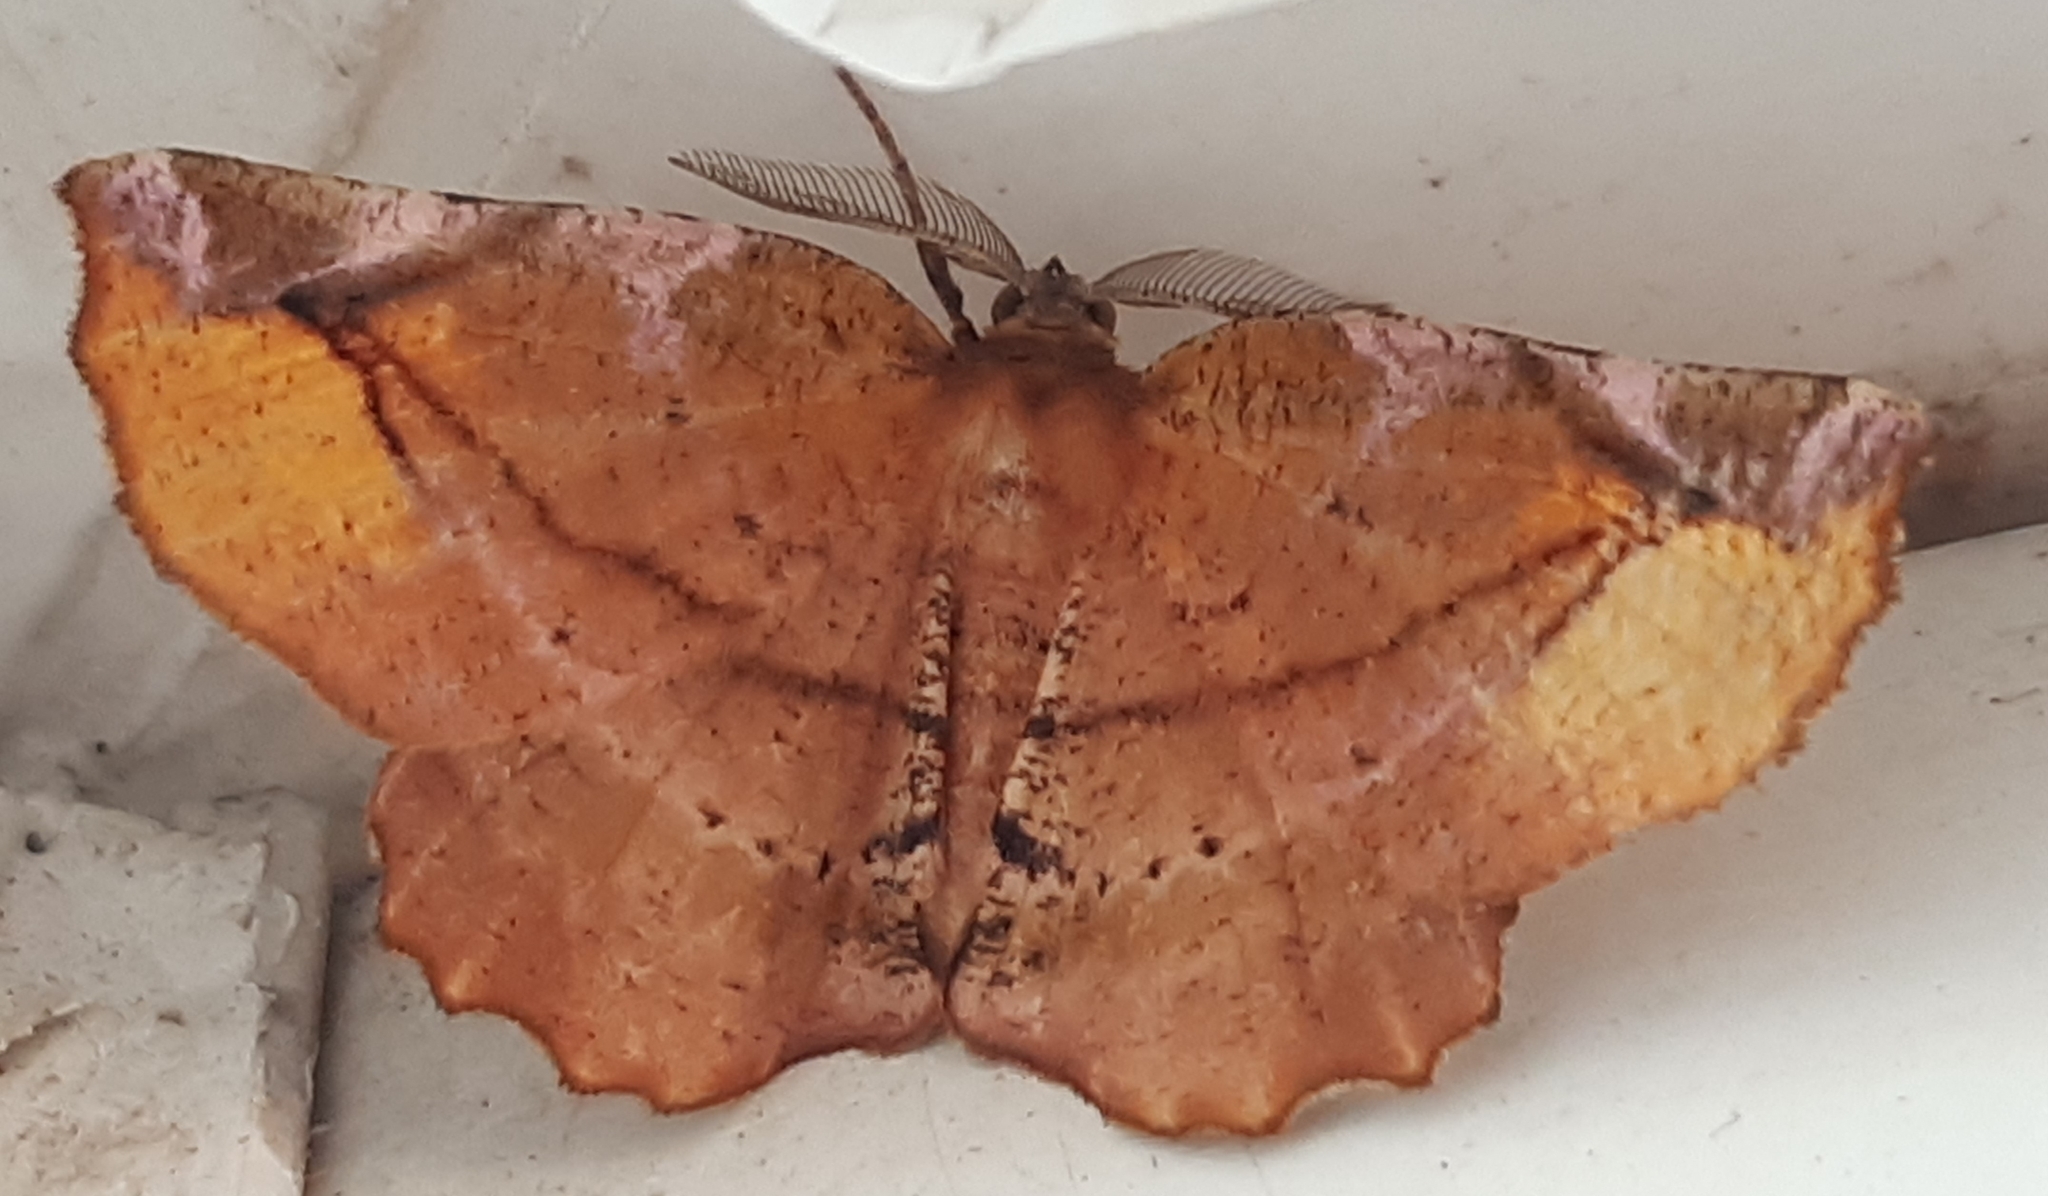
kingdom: Animalia
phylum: Arthropoda
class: Insecta
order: Lepidoptera
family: Geometridae
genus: Apeira
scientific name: Apeira syringaria
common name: Lilac beauty
